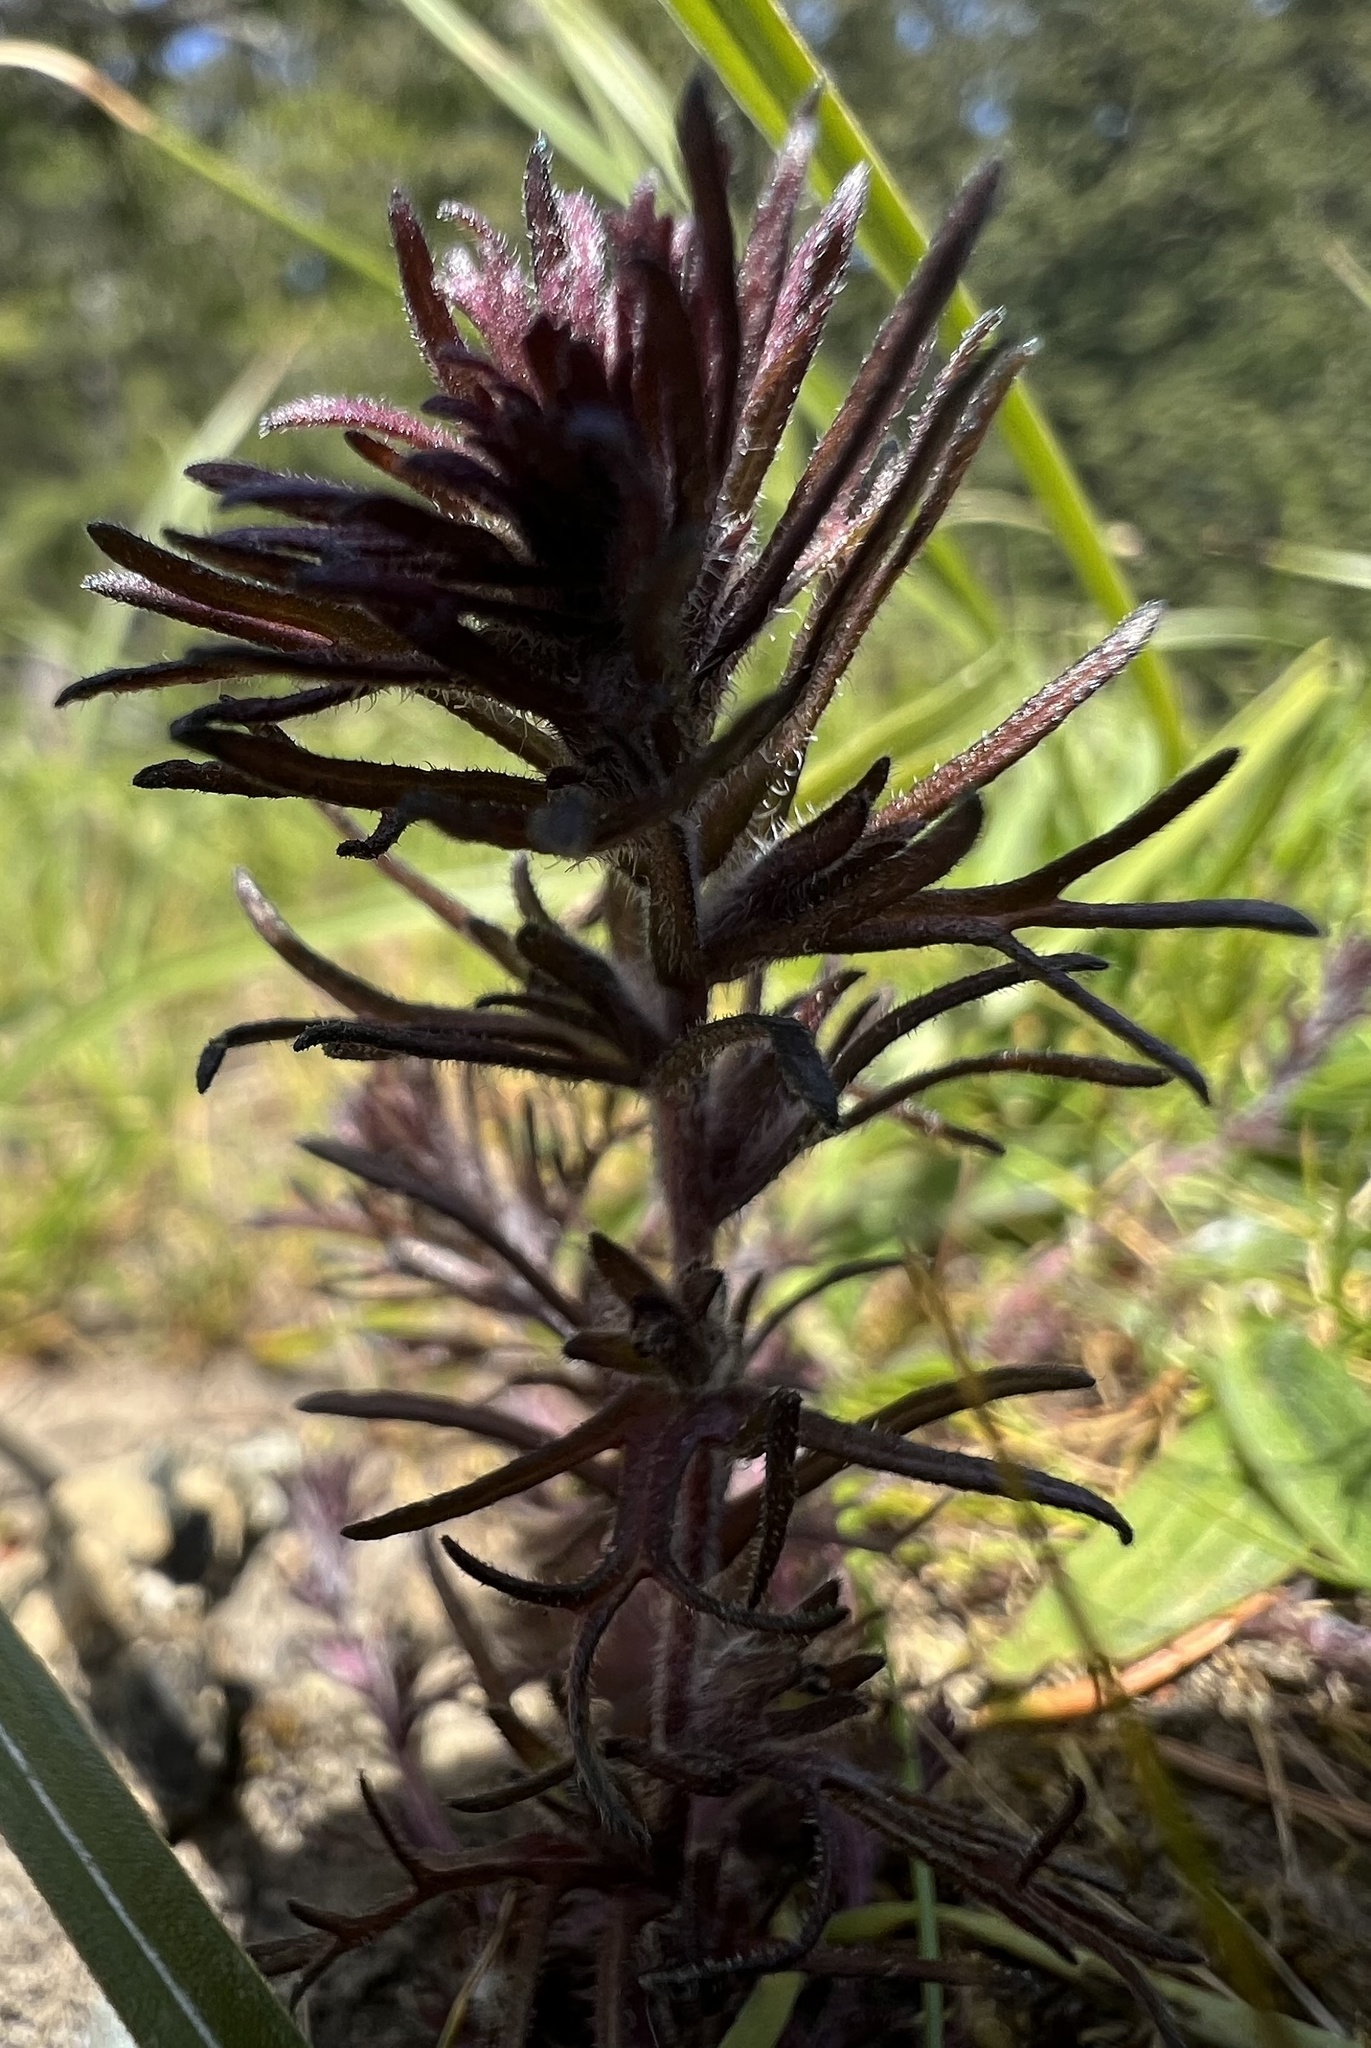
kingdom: Plantae
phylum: Tracheophyta
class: Magnoliopsida
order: Lamiales
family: Orobanchaceae
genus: Triphysaria
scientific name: Triphysaria pusilla
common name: Dwarf false owl-clover
